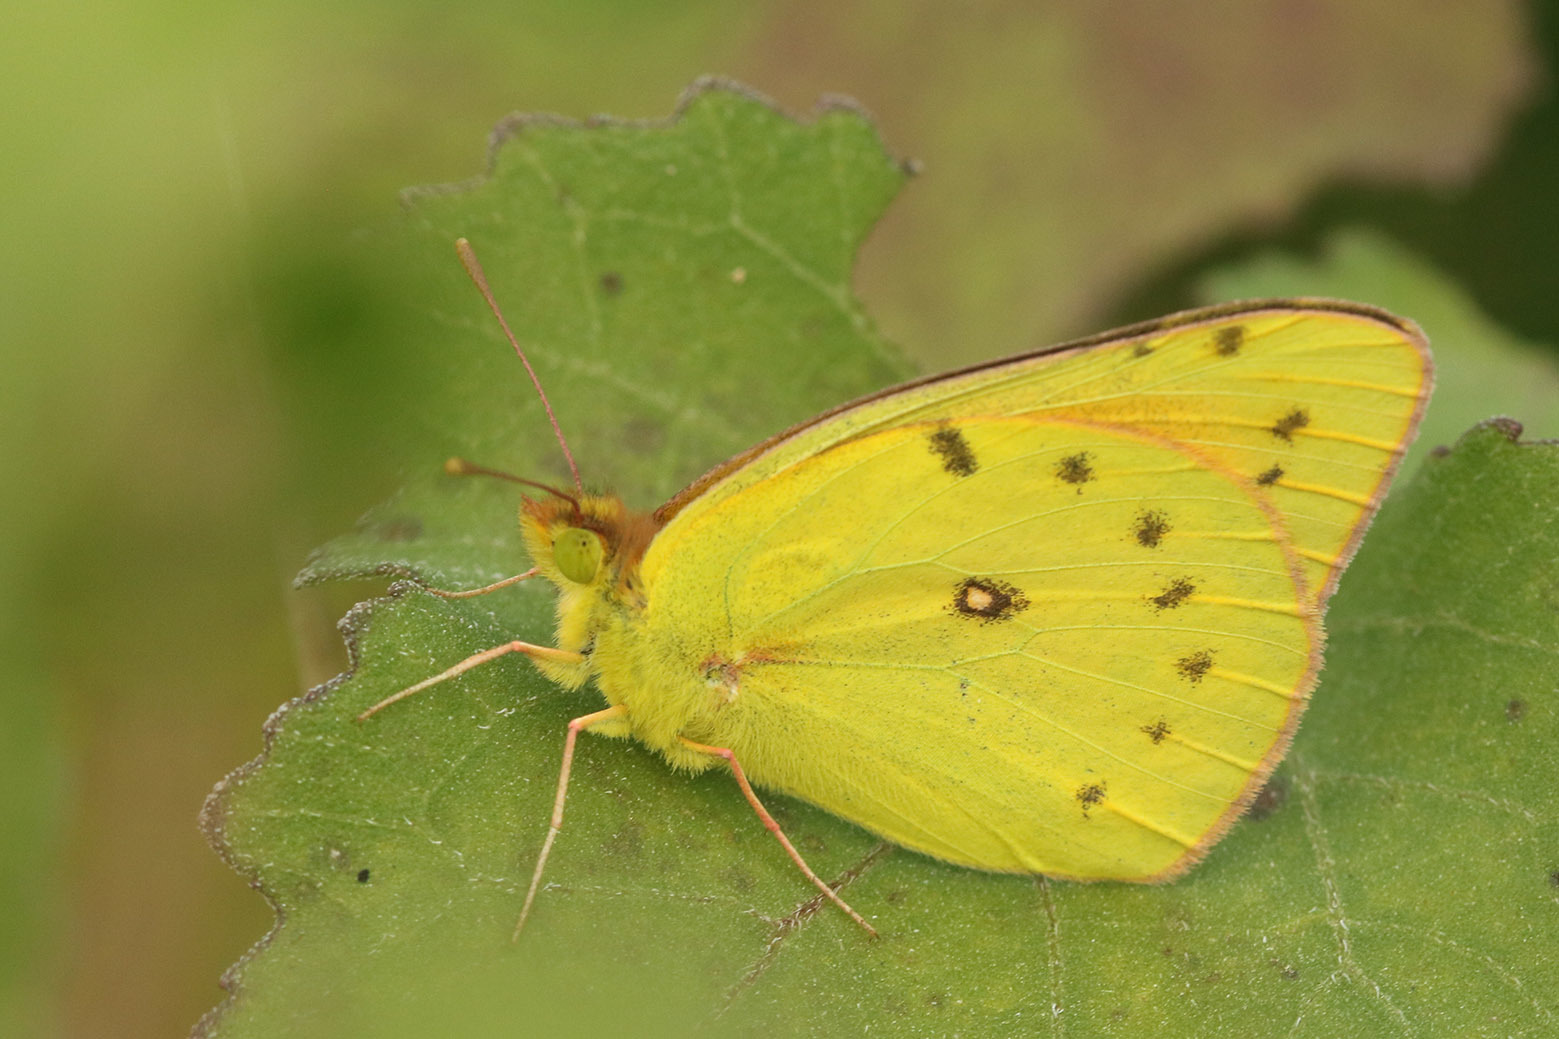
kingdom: Animalia
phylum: Arthropoda
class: Insecta
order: Lepidoptera
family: Pieridae
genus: Colias
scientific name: Colias lesbia
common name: Lesbia clouded yellow
